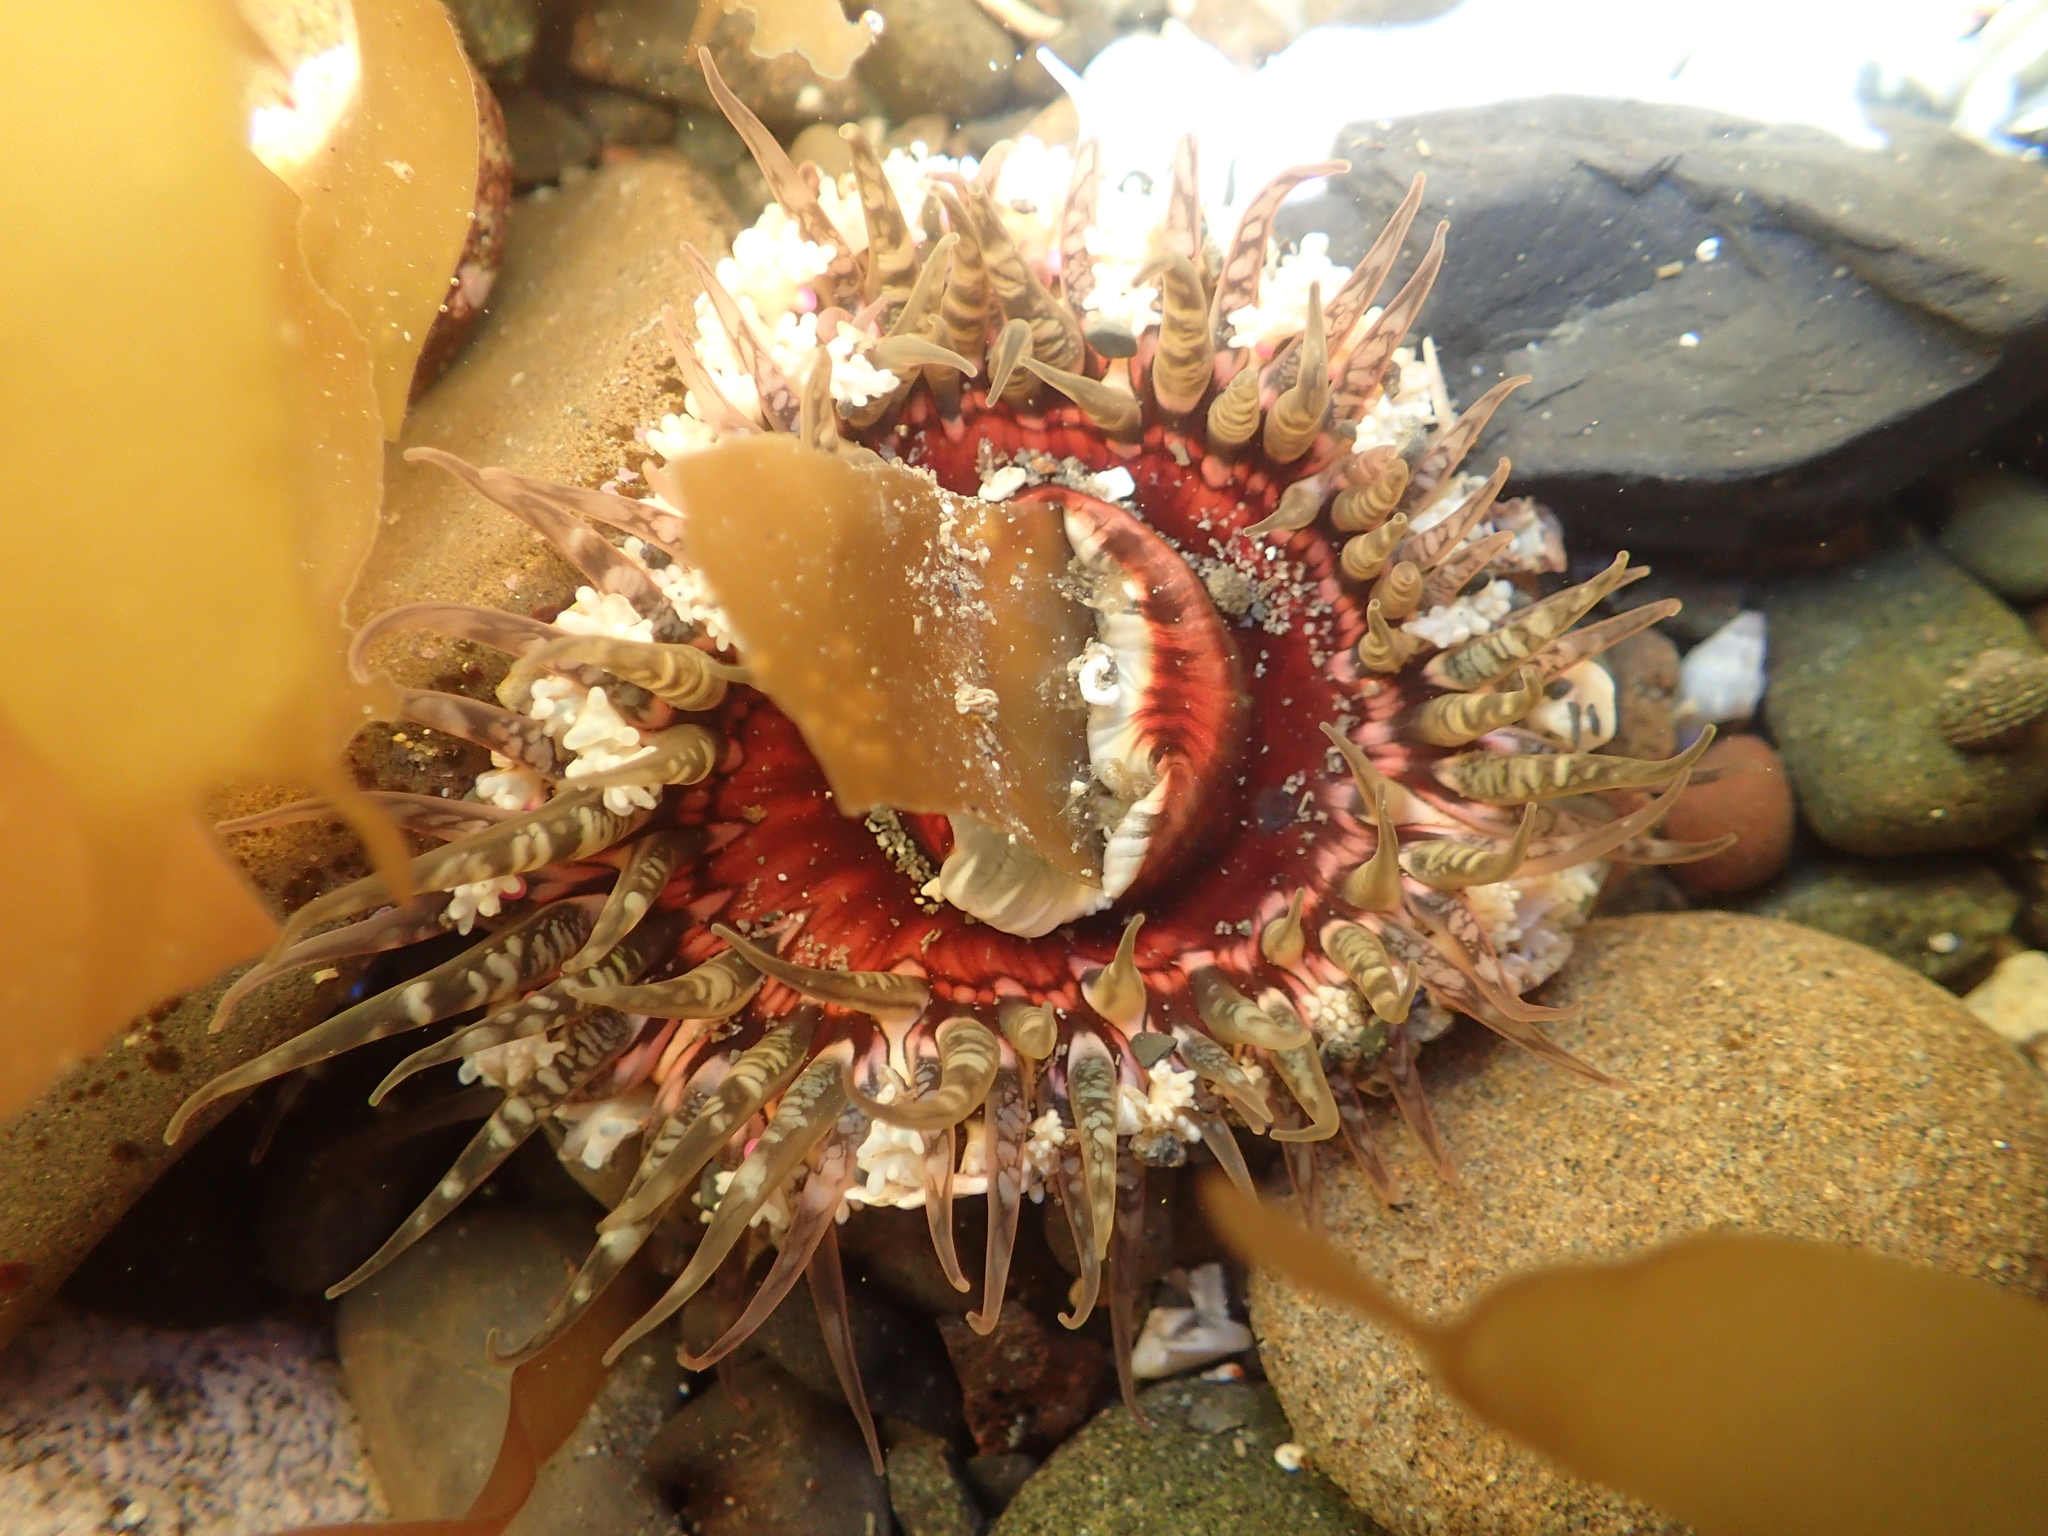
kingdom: Animalia
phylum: Cnidaria
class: Anthozoa
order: Actiniaria
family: Actiniidae
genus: Oulactis
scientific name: Oulactis muscosa
